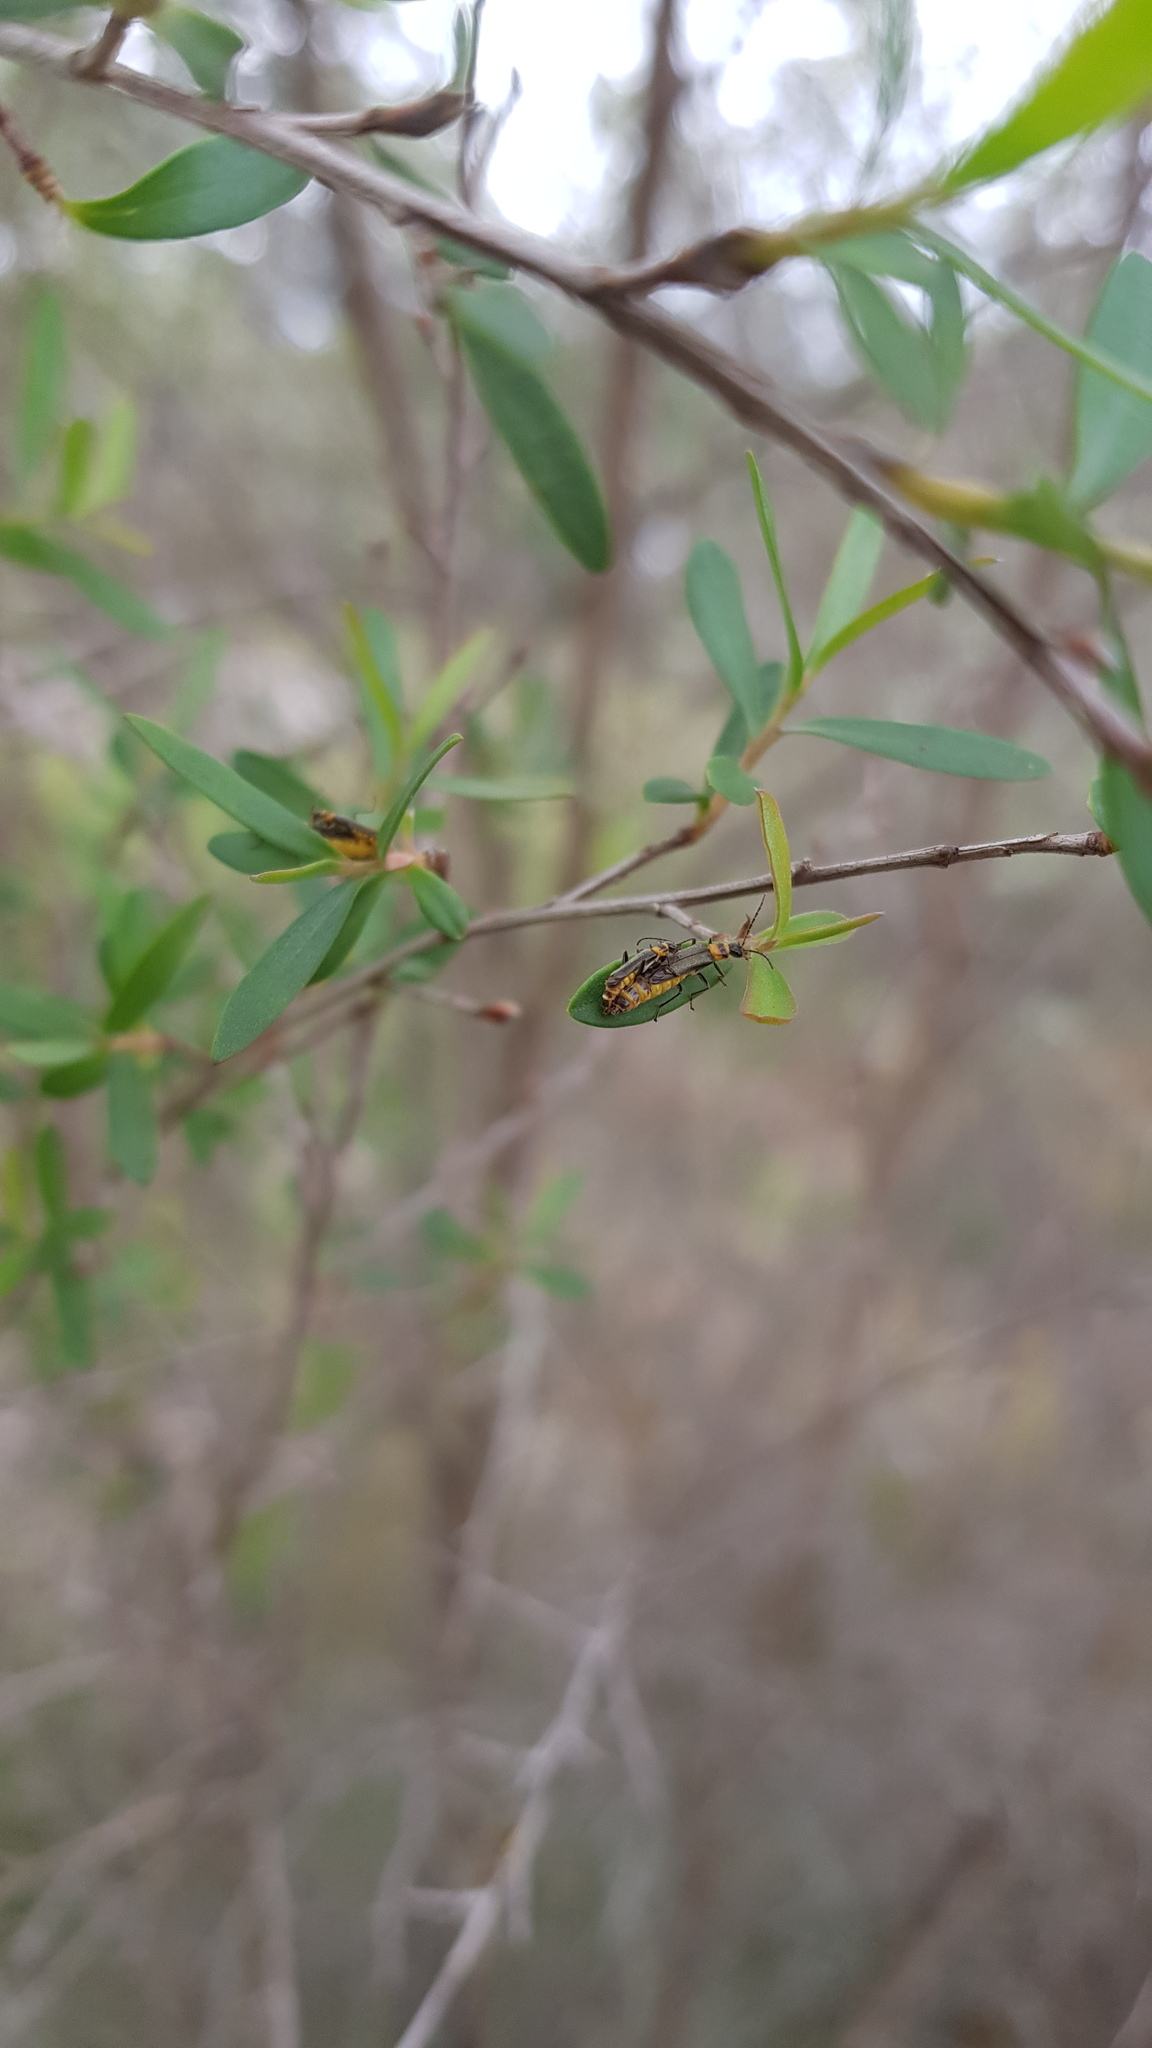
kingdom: Animalia
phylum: Arthropoda
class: Insecta
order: Coleoptera
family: Cantharidae
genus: Chauliognathus
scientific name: Chauliognathus
